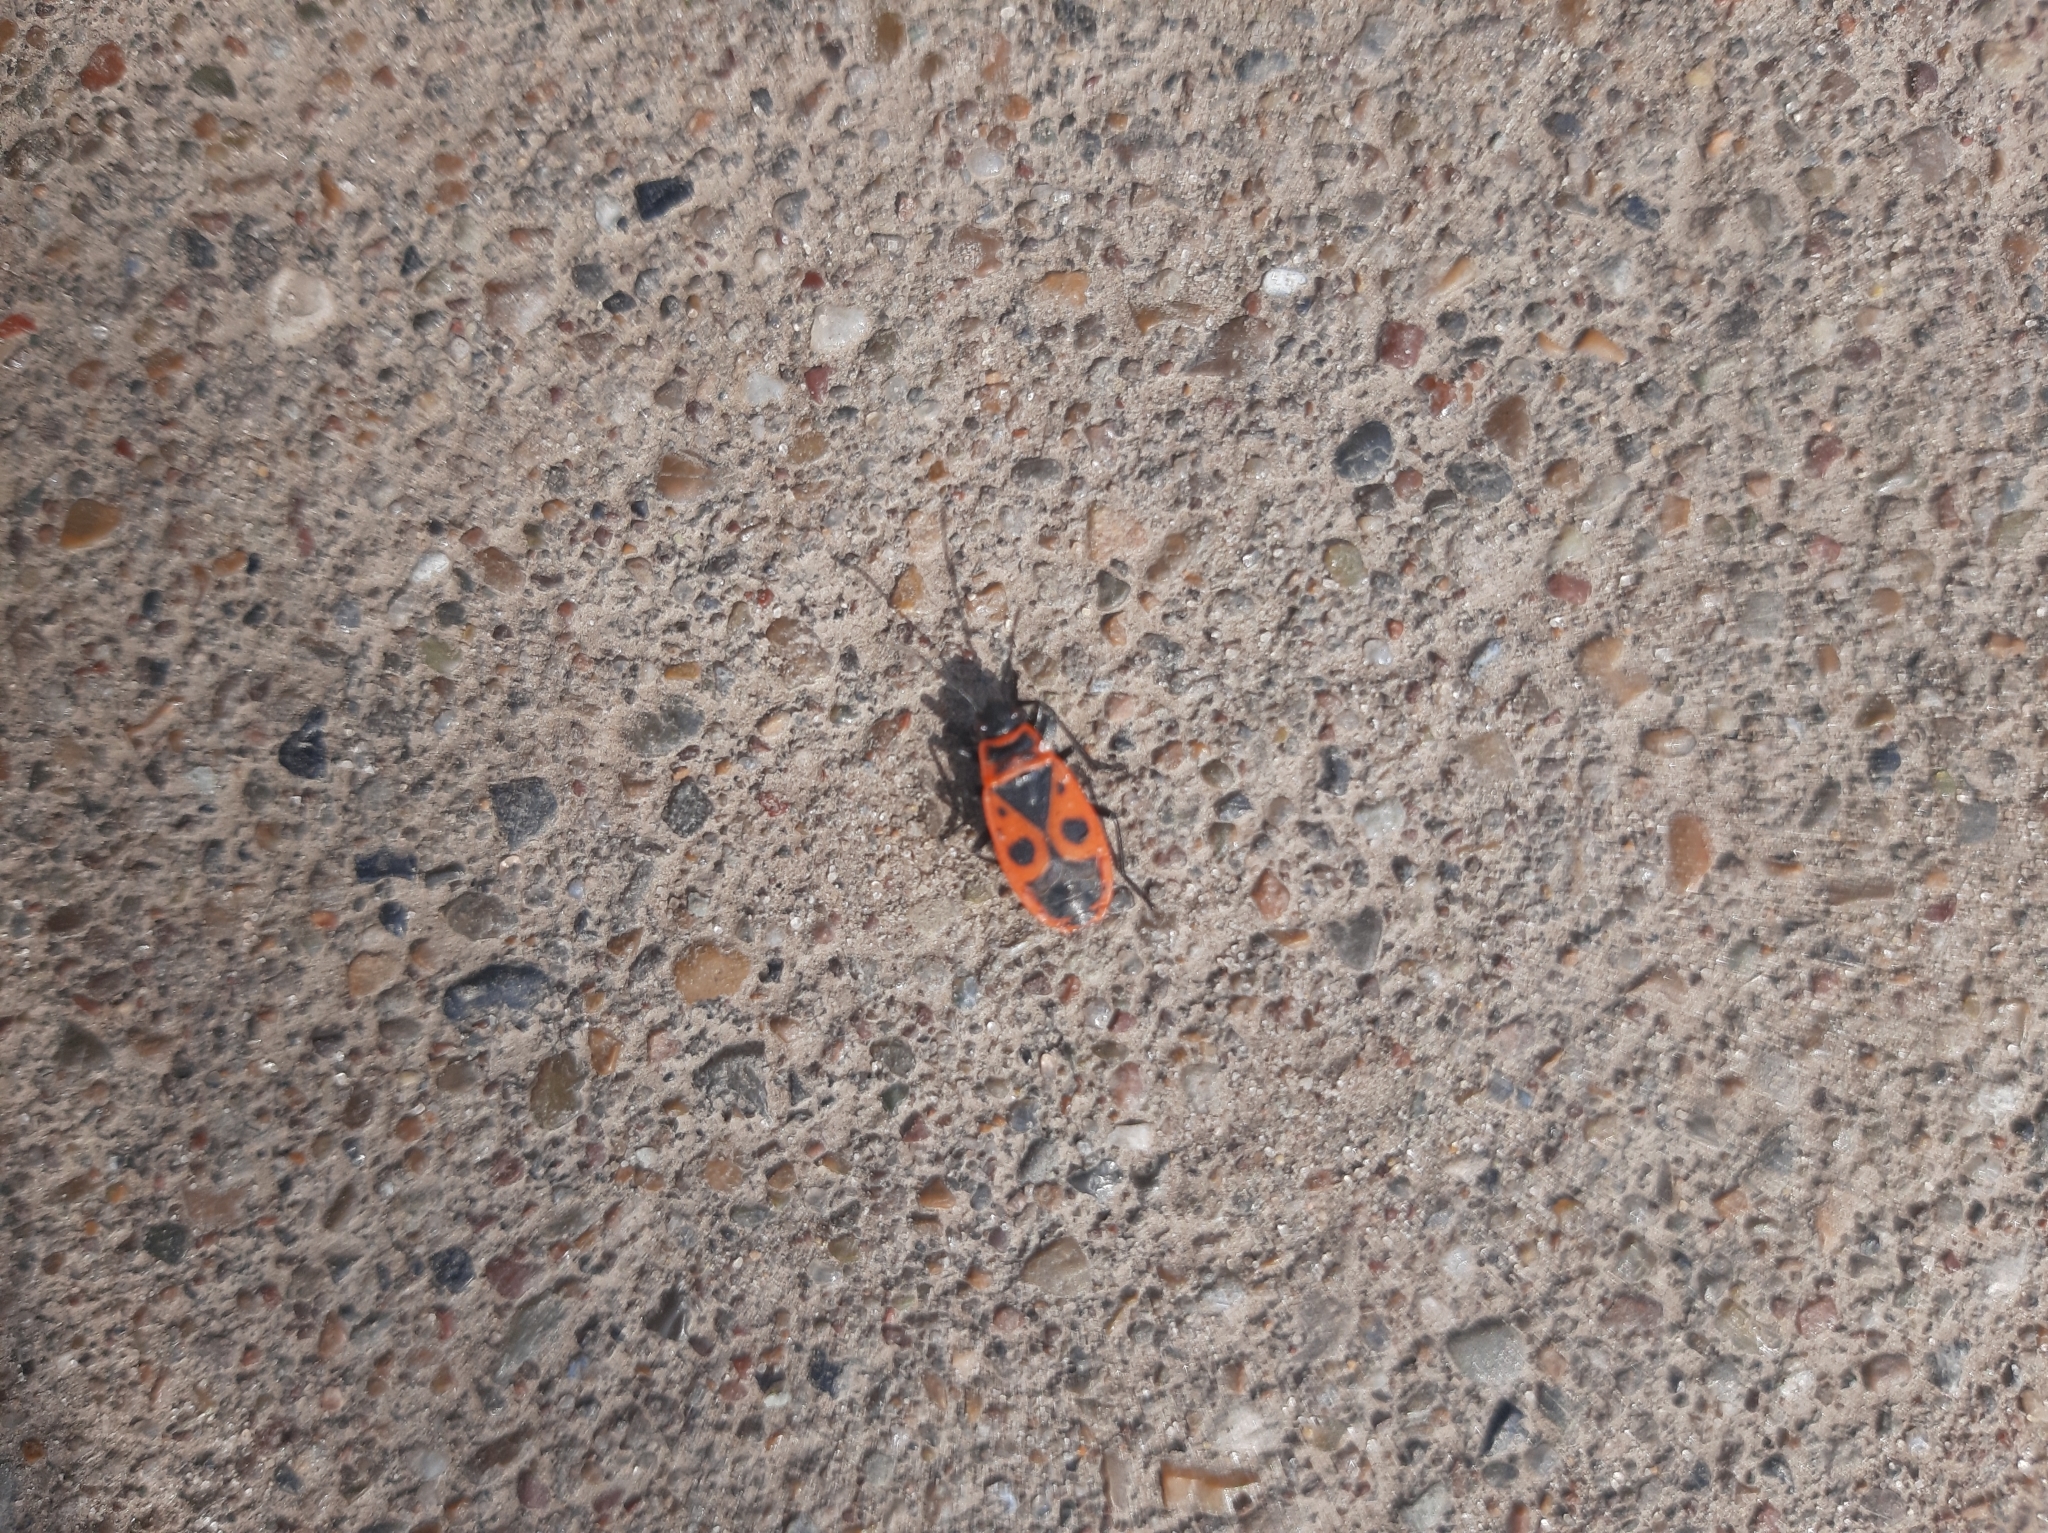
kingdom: Animalia
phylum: Arthropoda
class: Insecta
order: Hemiptera
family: Pyrrhocoridae
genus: Pyrrhocoris
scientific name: Pyrrhocoris apterus
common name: Firebug
